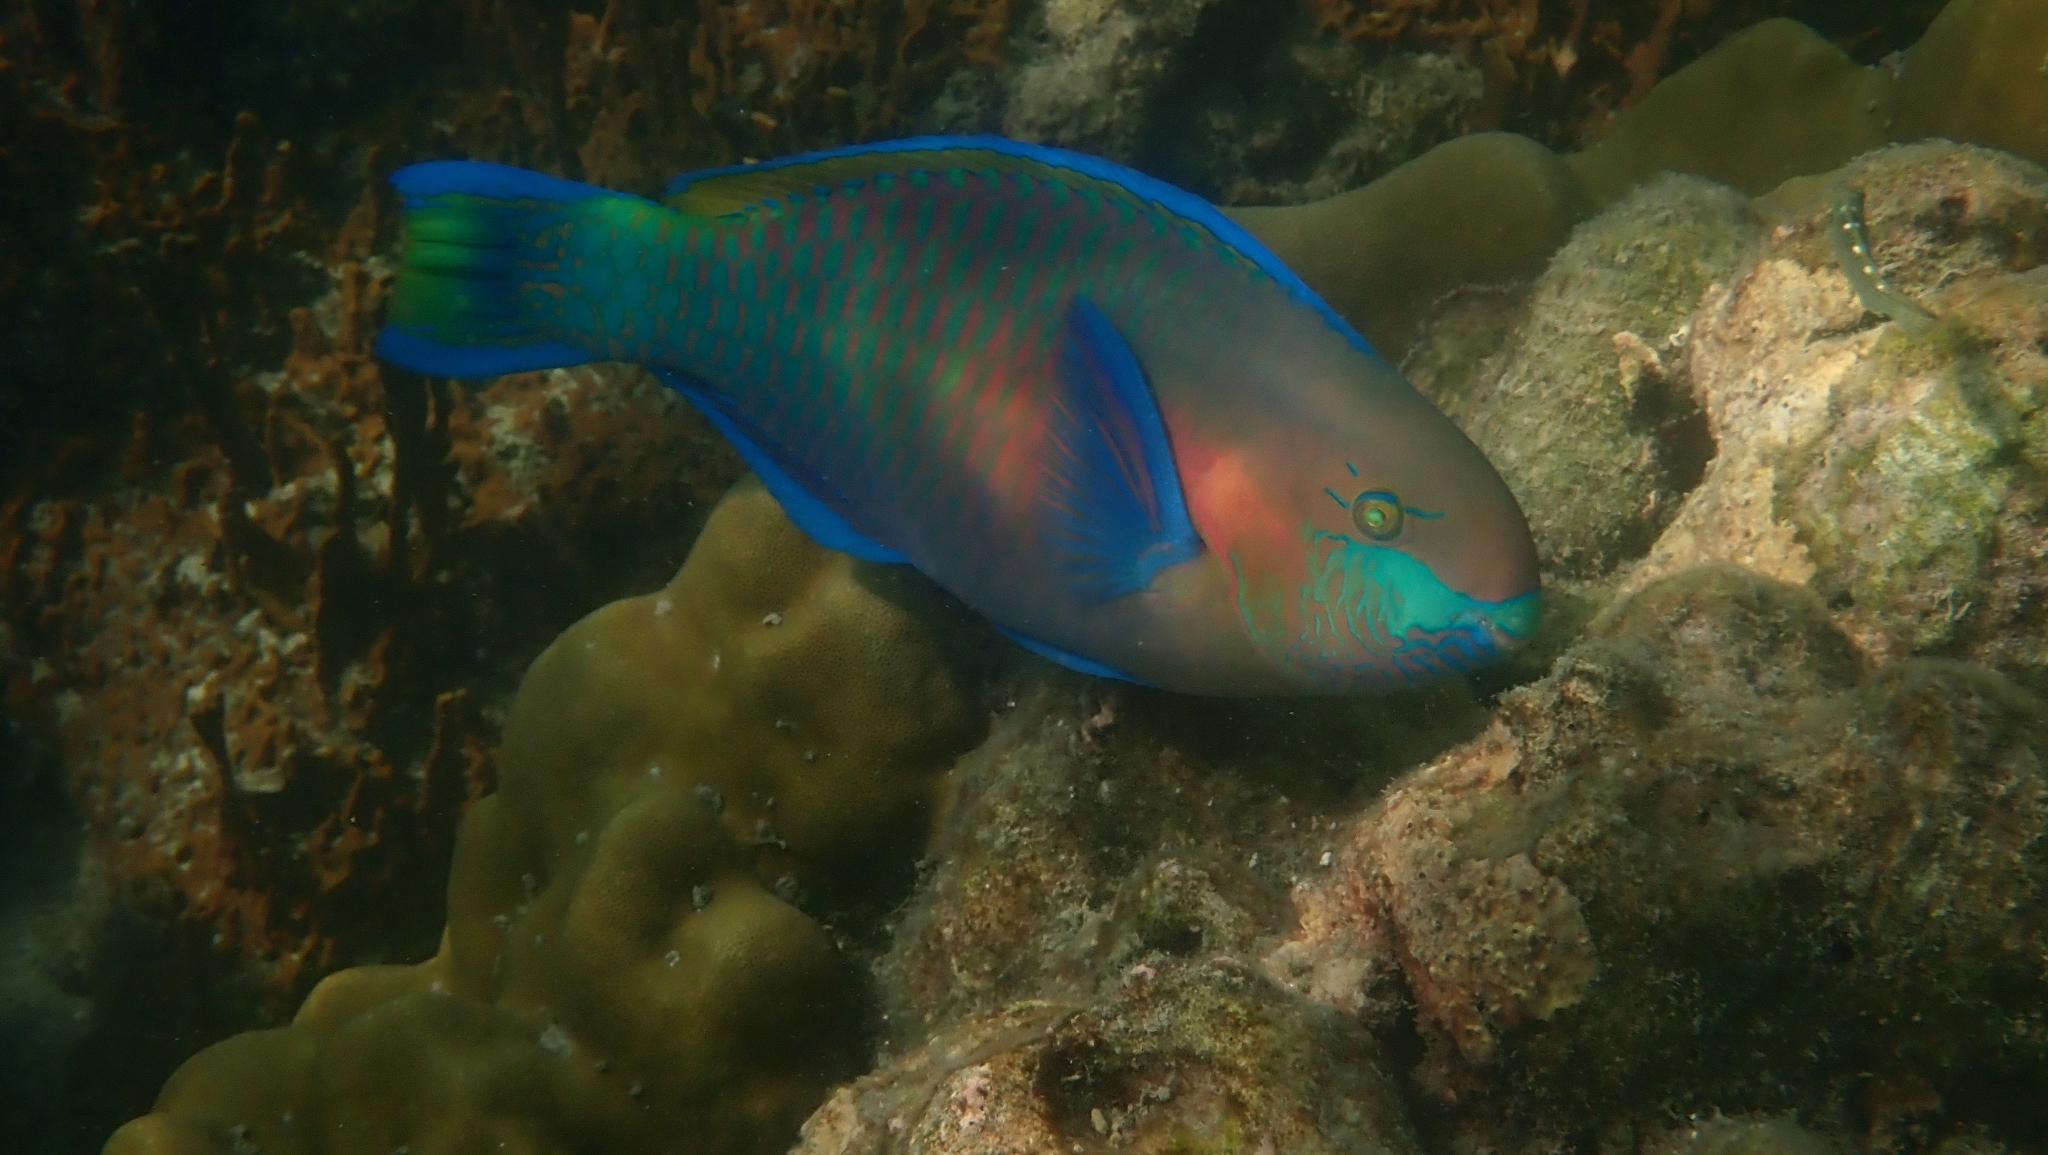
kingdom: Animalia
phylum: Chordata
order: Perciformes
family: Scaridae
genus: Scarus
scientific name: Scarus quoyi
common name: Quoy's parrotfish
